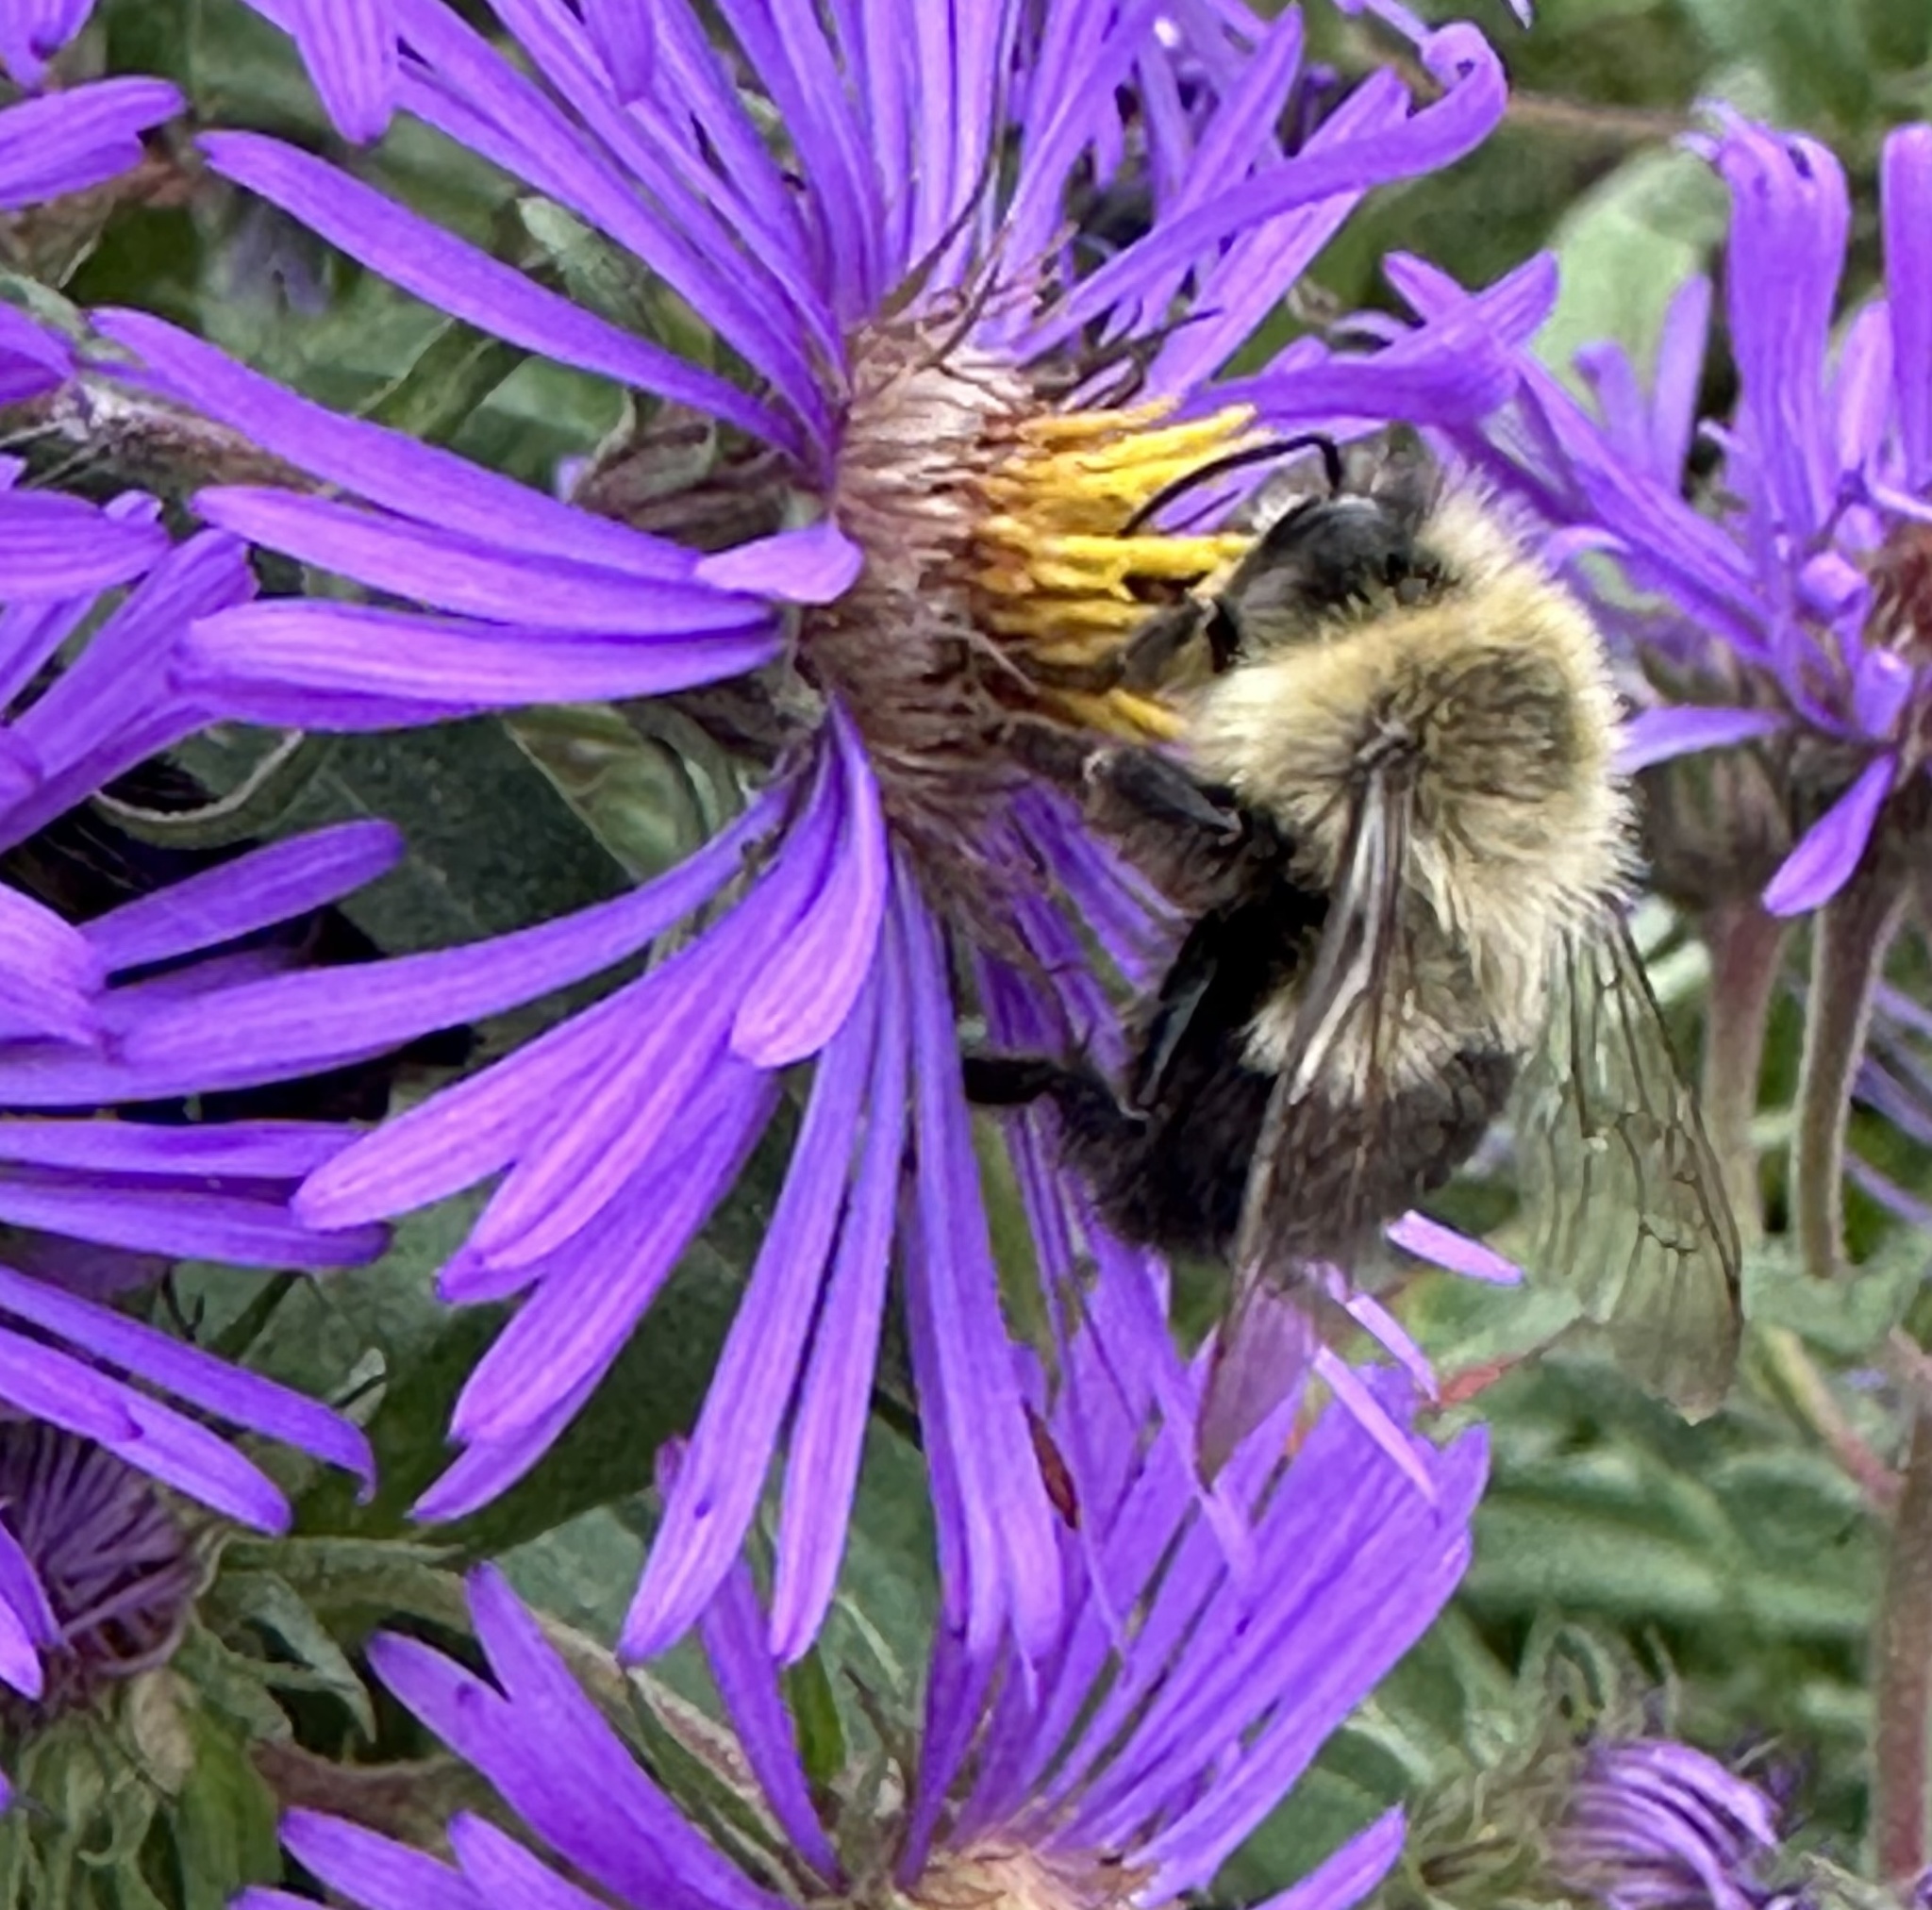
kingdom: Animalia
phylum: Arthropoda
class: Insecta
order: Hymenoptera
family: Apidae
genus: Bombus
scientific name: Bombus impatiens
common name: Common eastern bumble bee
